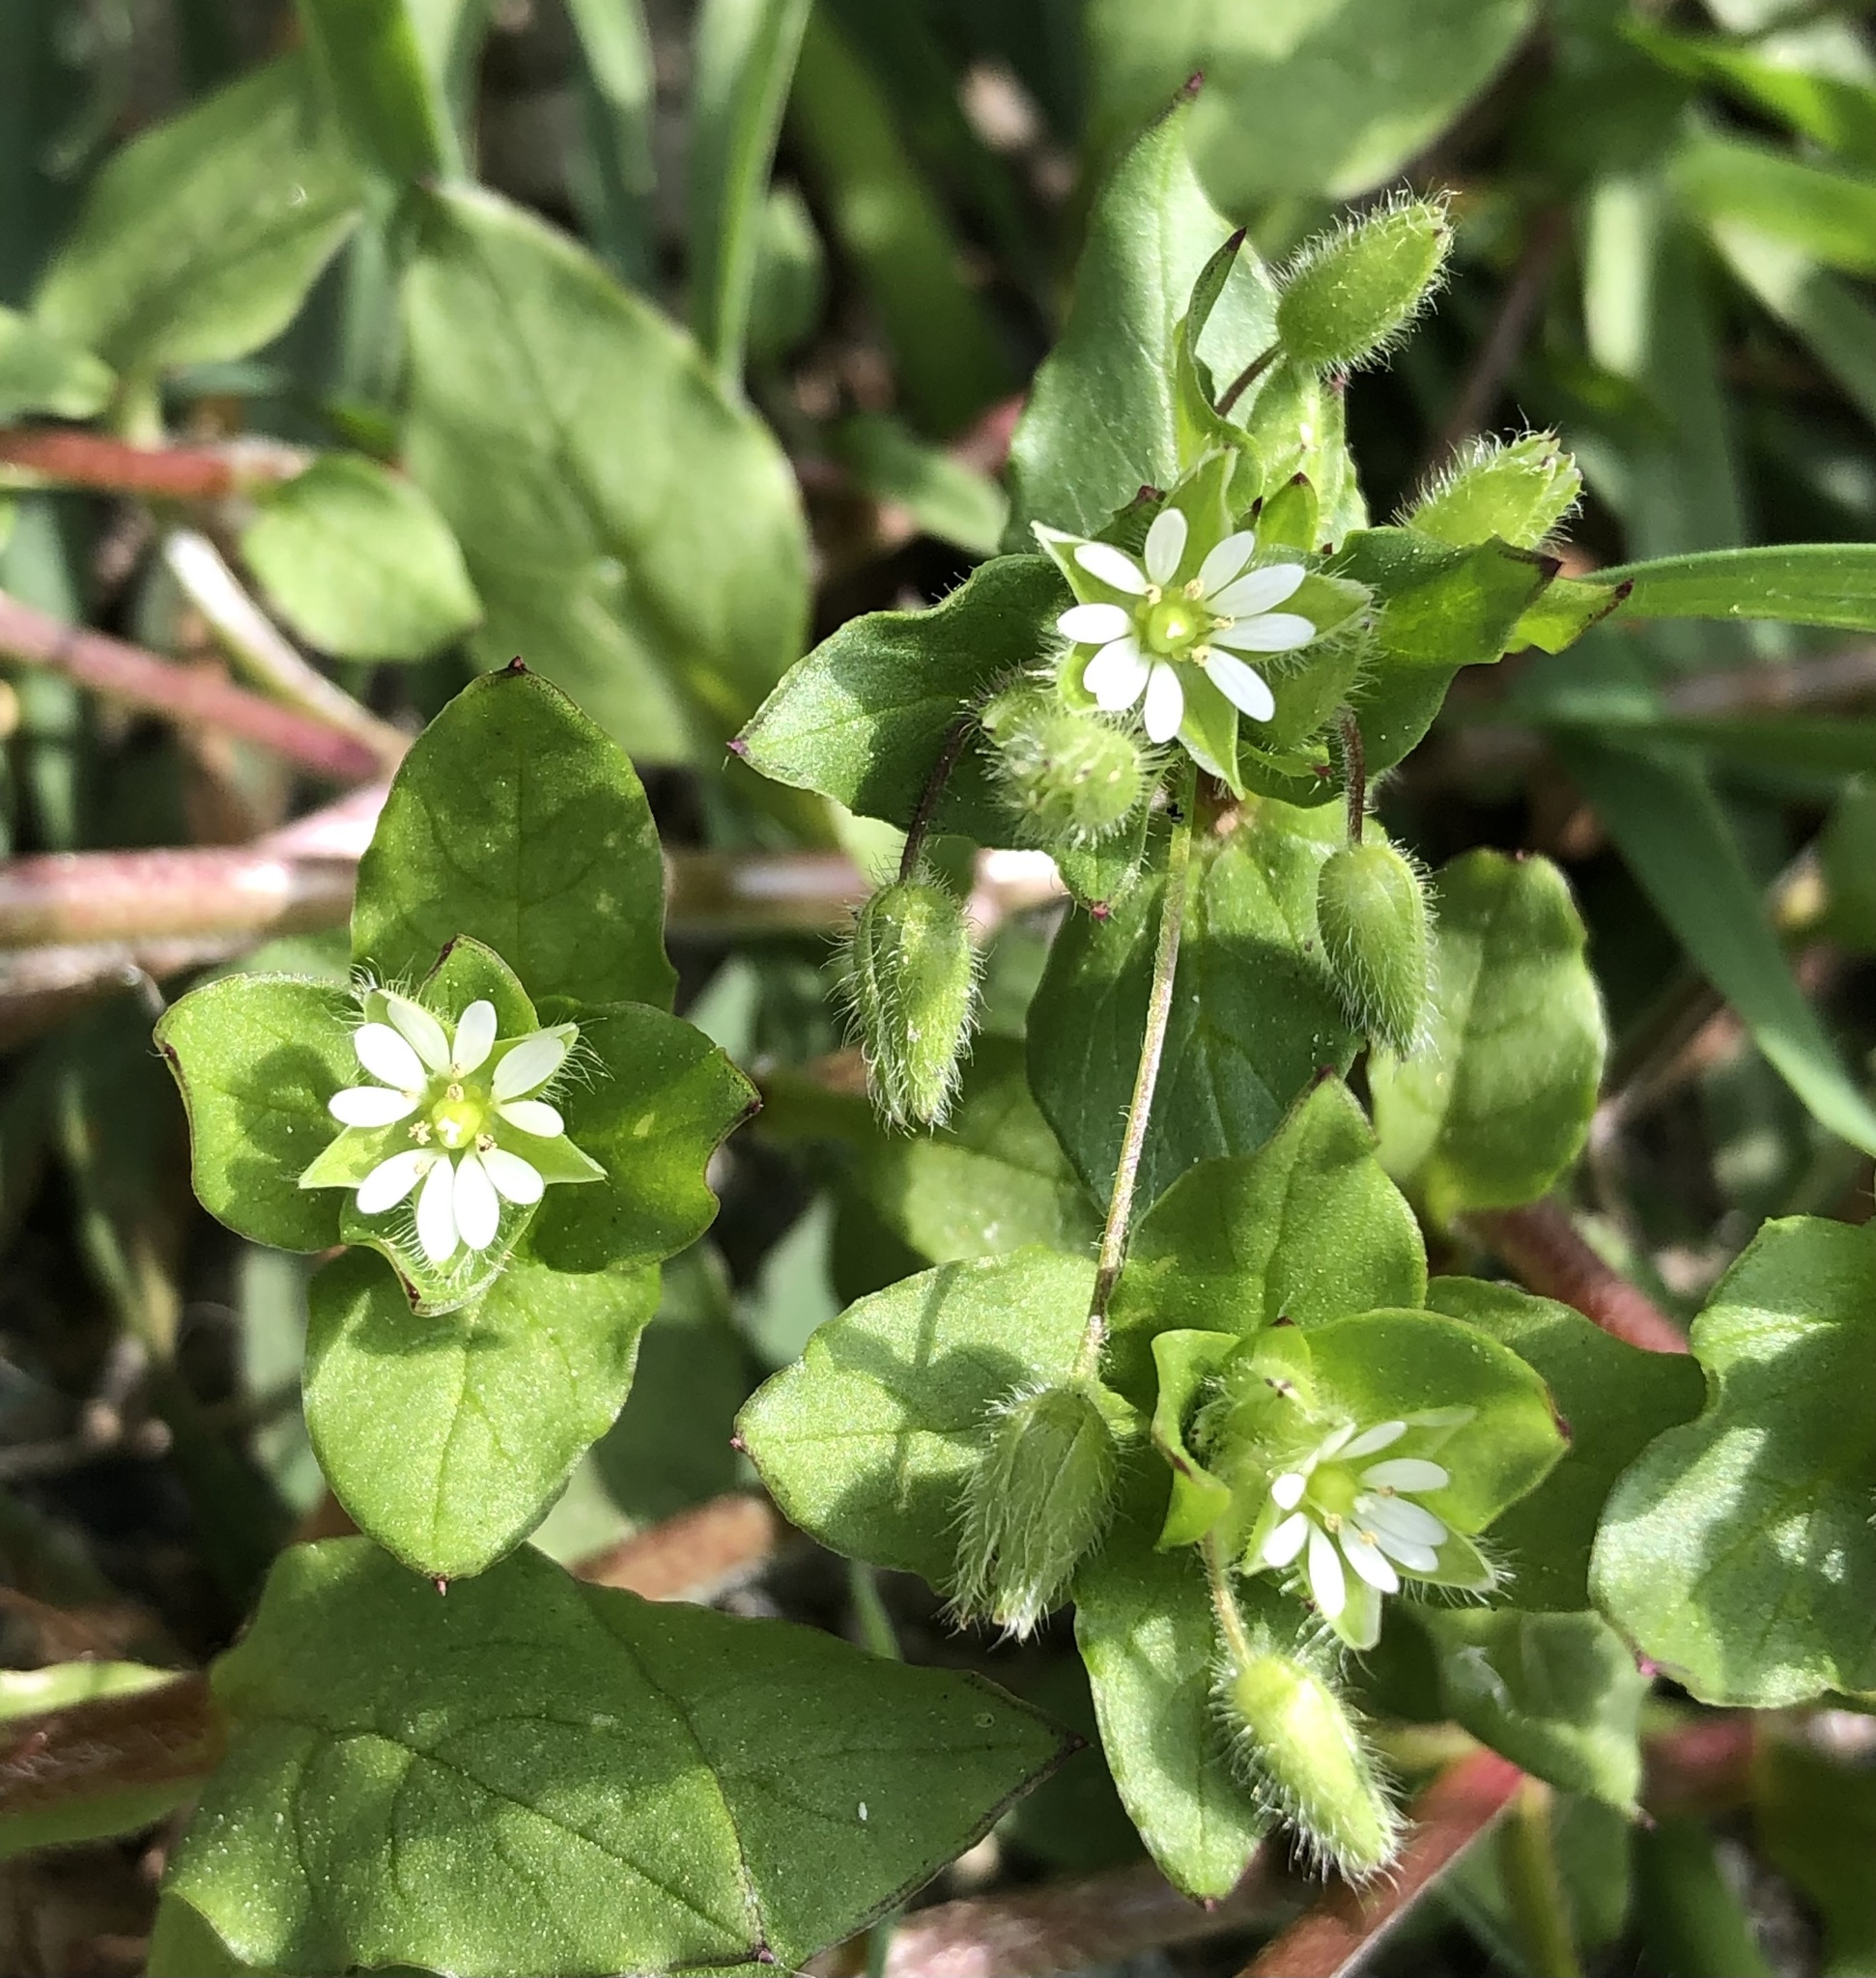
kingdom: Plantae
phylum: Tracheophyta
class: Magnoliopsida
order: Caryophyllales
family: Caryophyllaceae
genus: Stellaria
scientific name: Stellaria media
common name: Common chickweed
